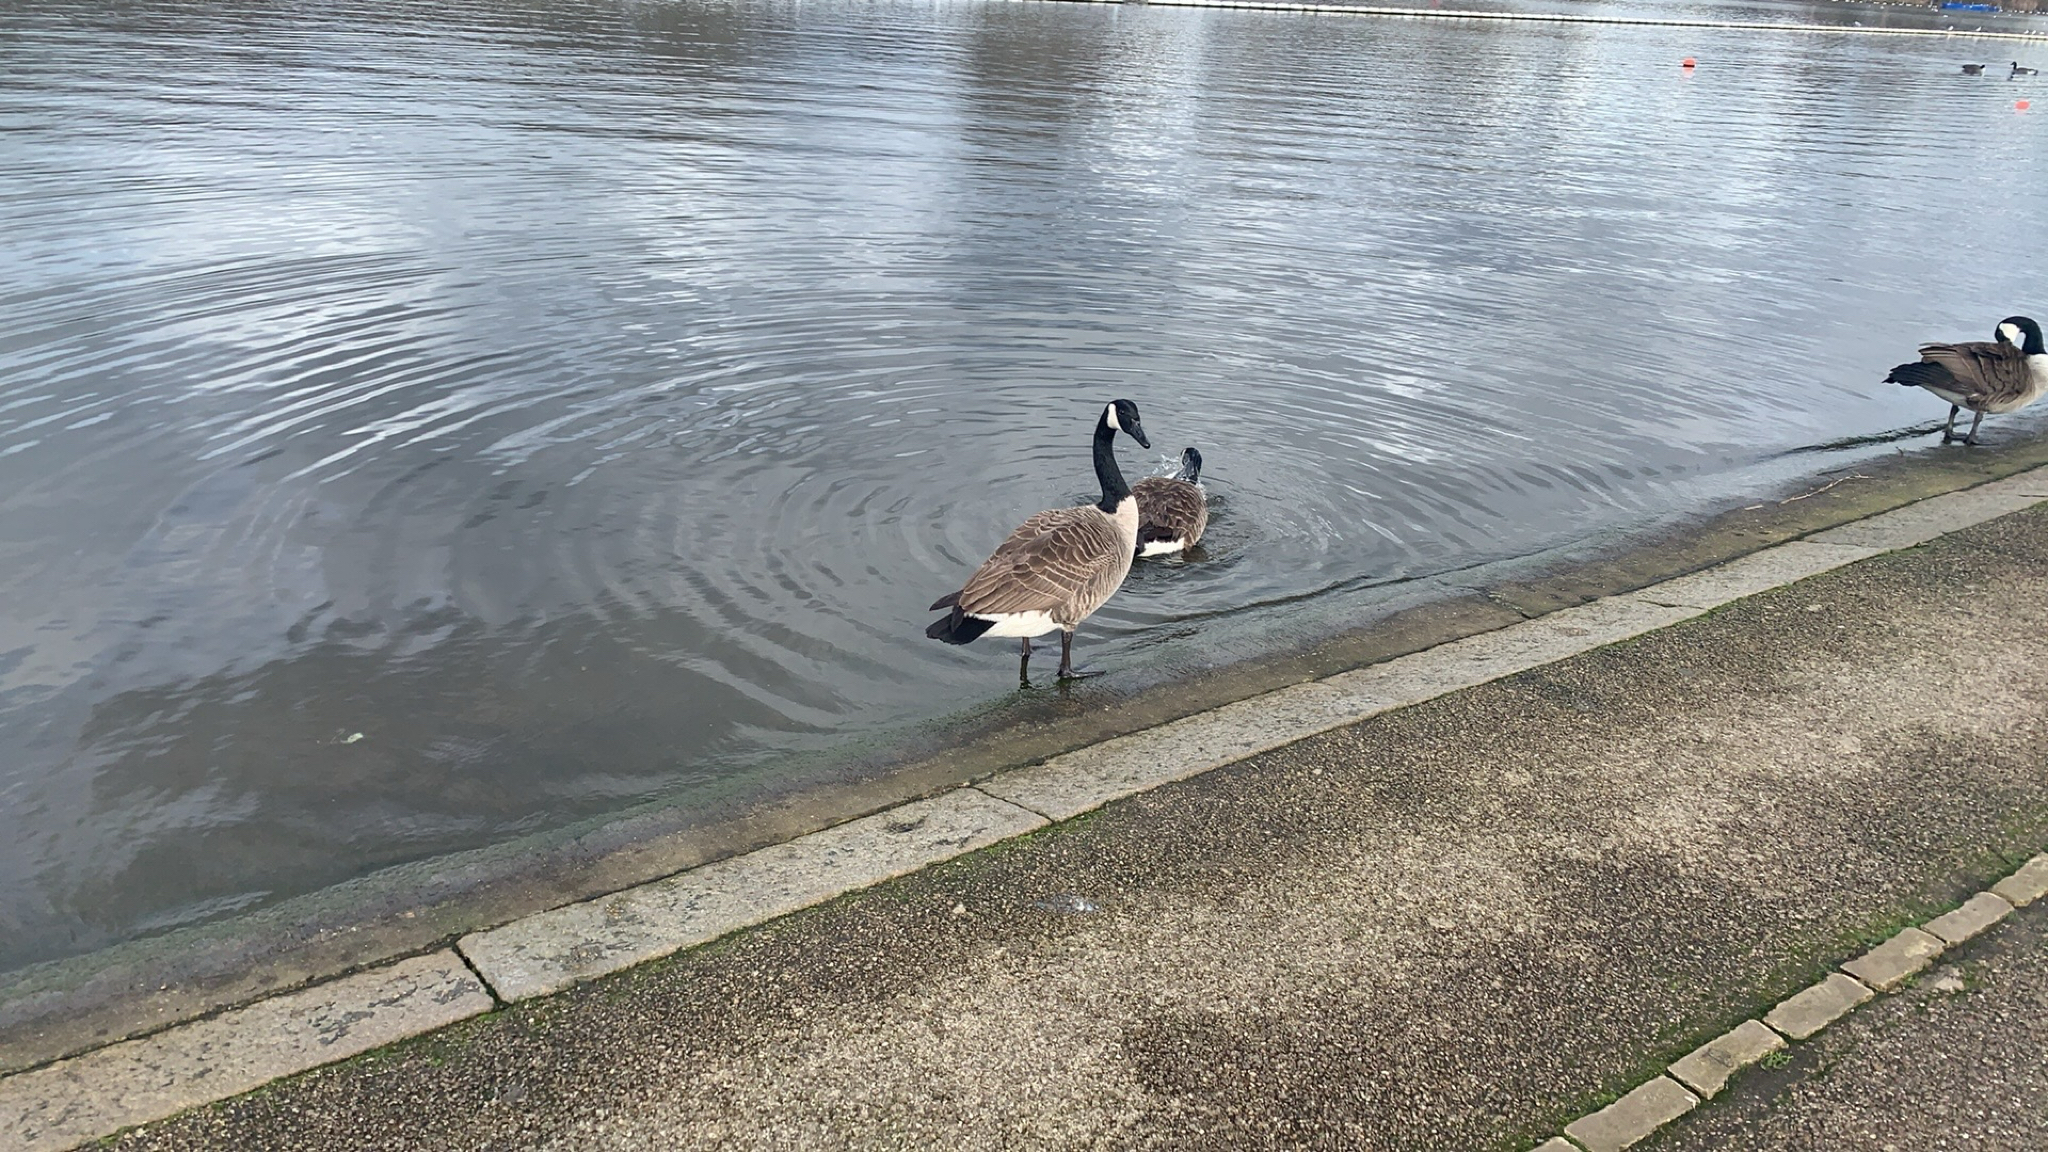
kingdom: Animalia
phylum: Chordata
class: Aves
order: Anseriformes
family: Anatidae
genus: Branta
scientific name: Branta canadensis
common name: Canada goose
